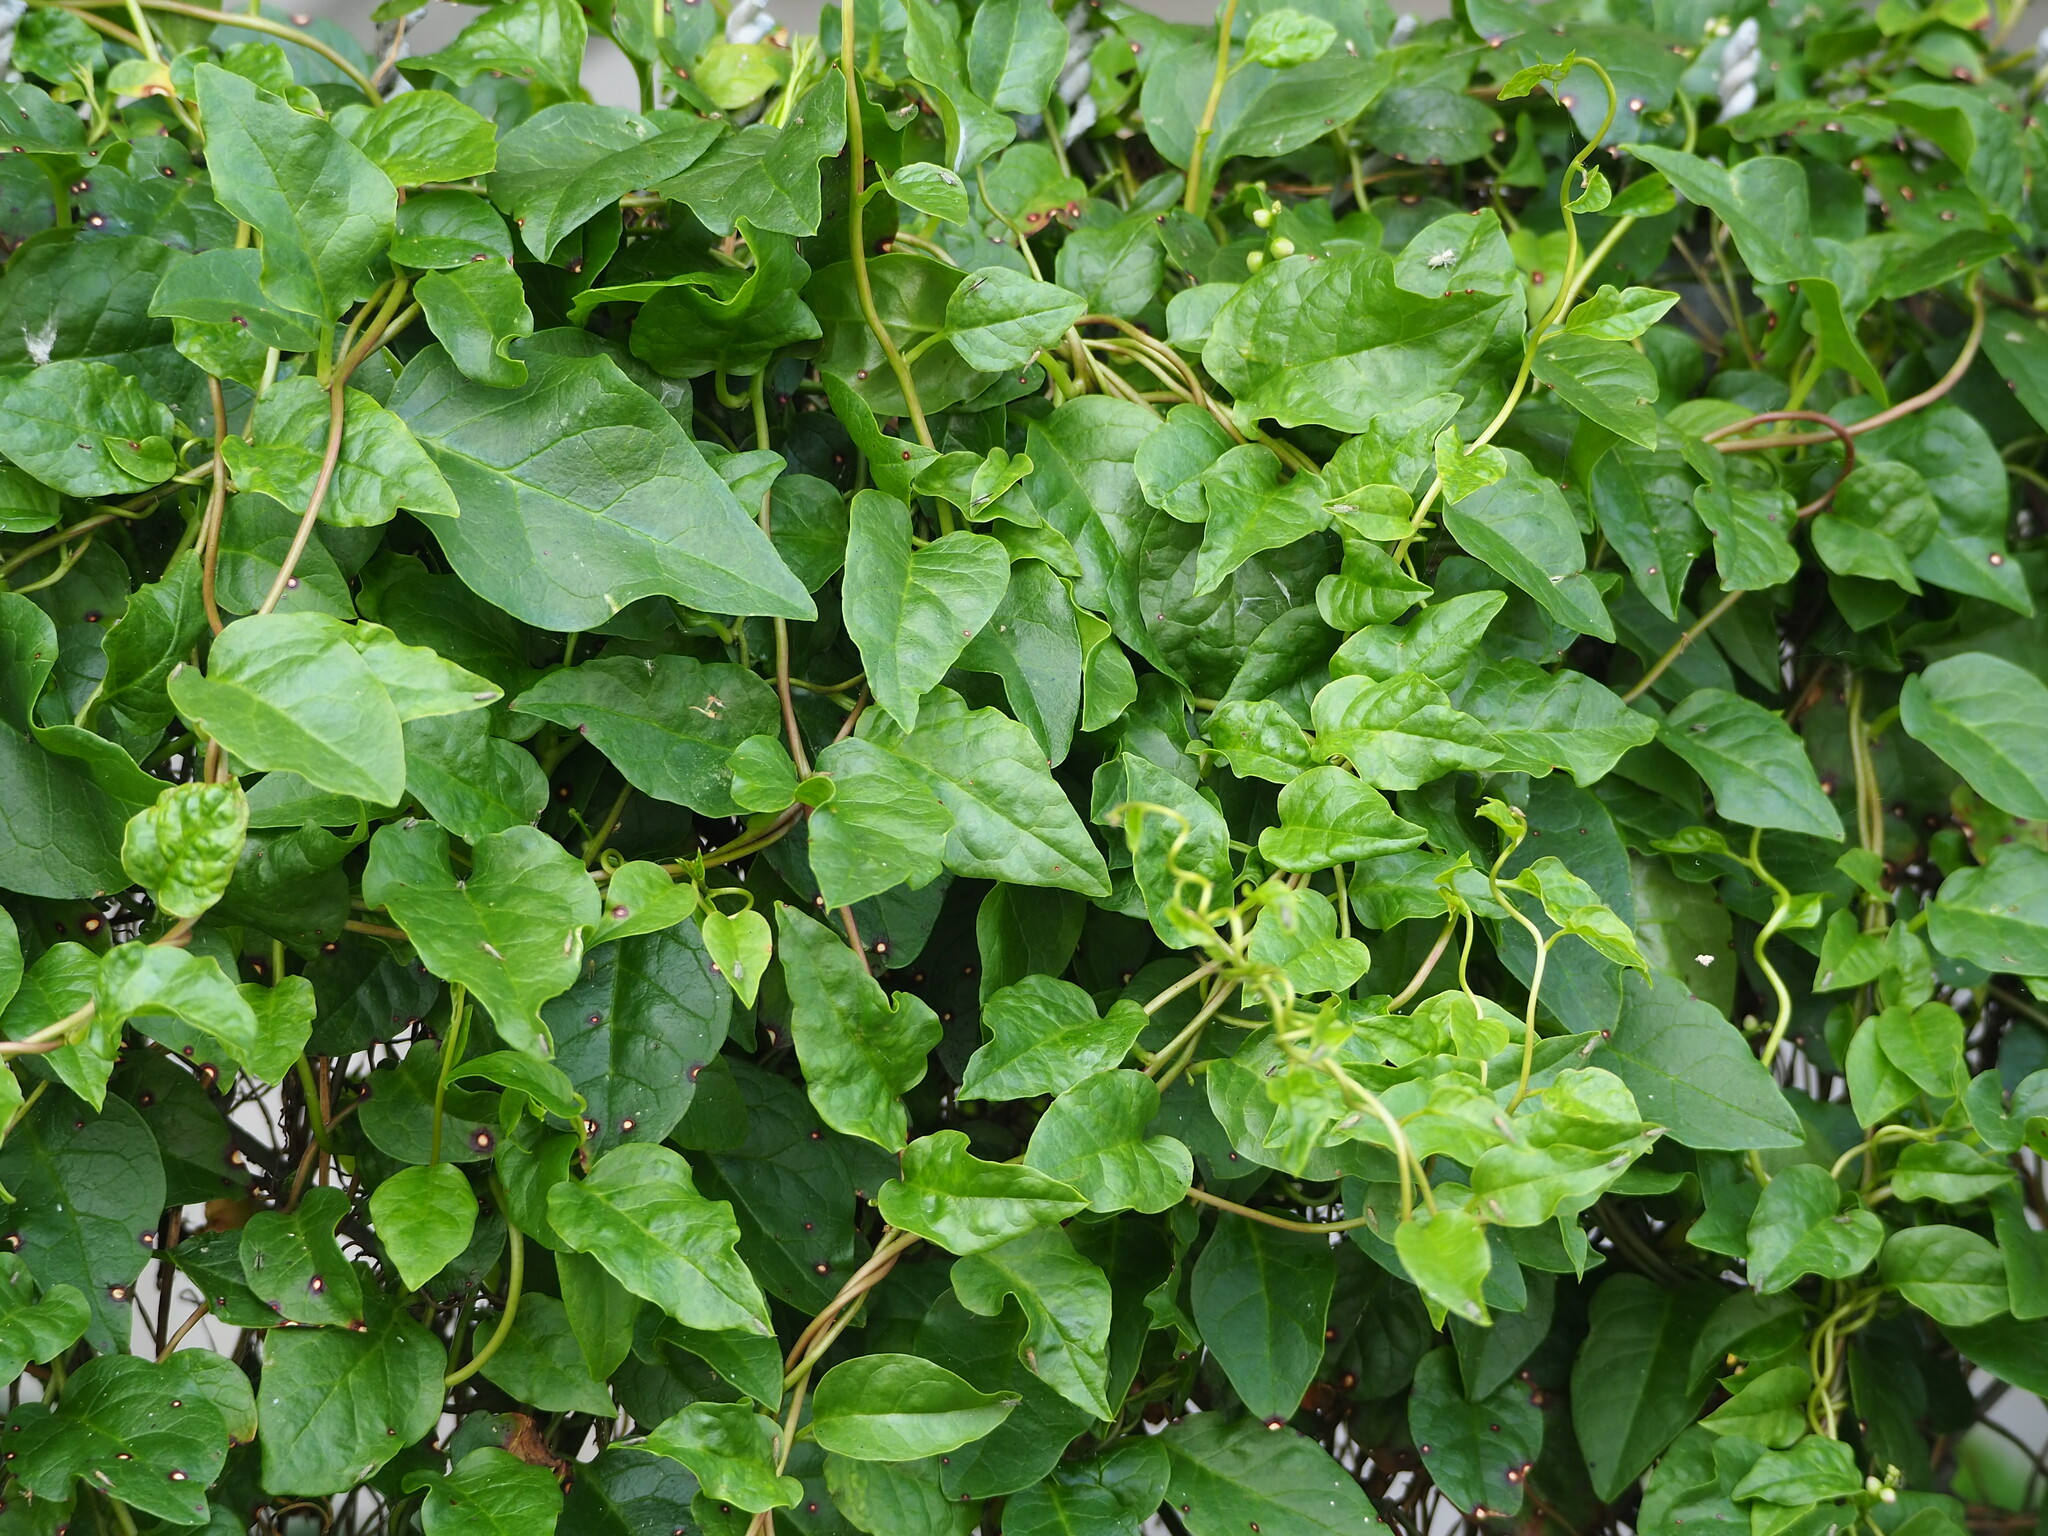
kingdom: Plantae
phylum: Tracheophyta
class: Magnoliopsida
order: Caryophyllales
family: Basellaceae
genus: Anredera
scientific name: Anredera cordifolia
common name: Heartleaf madeiravine
